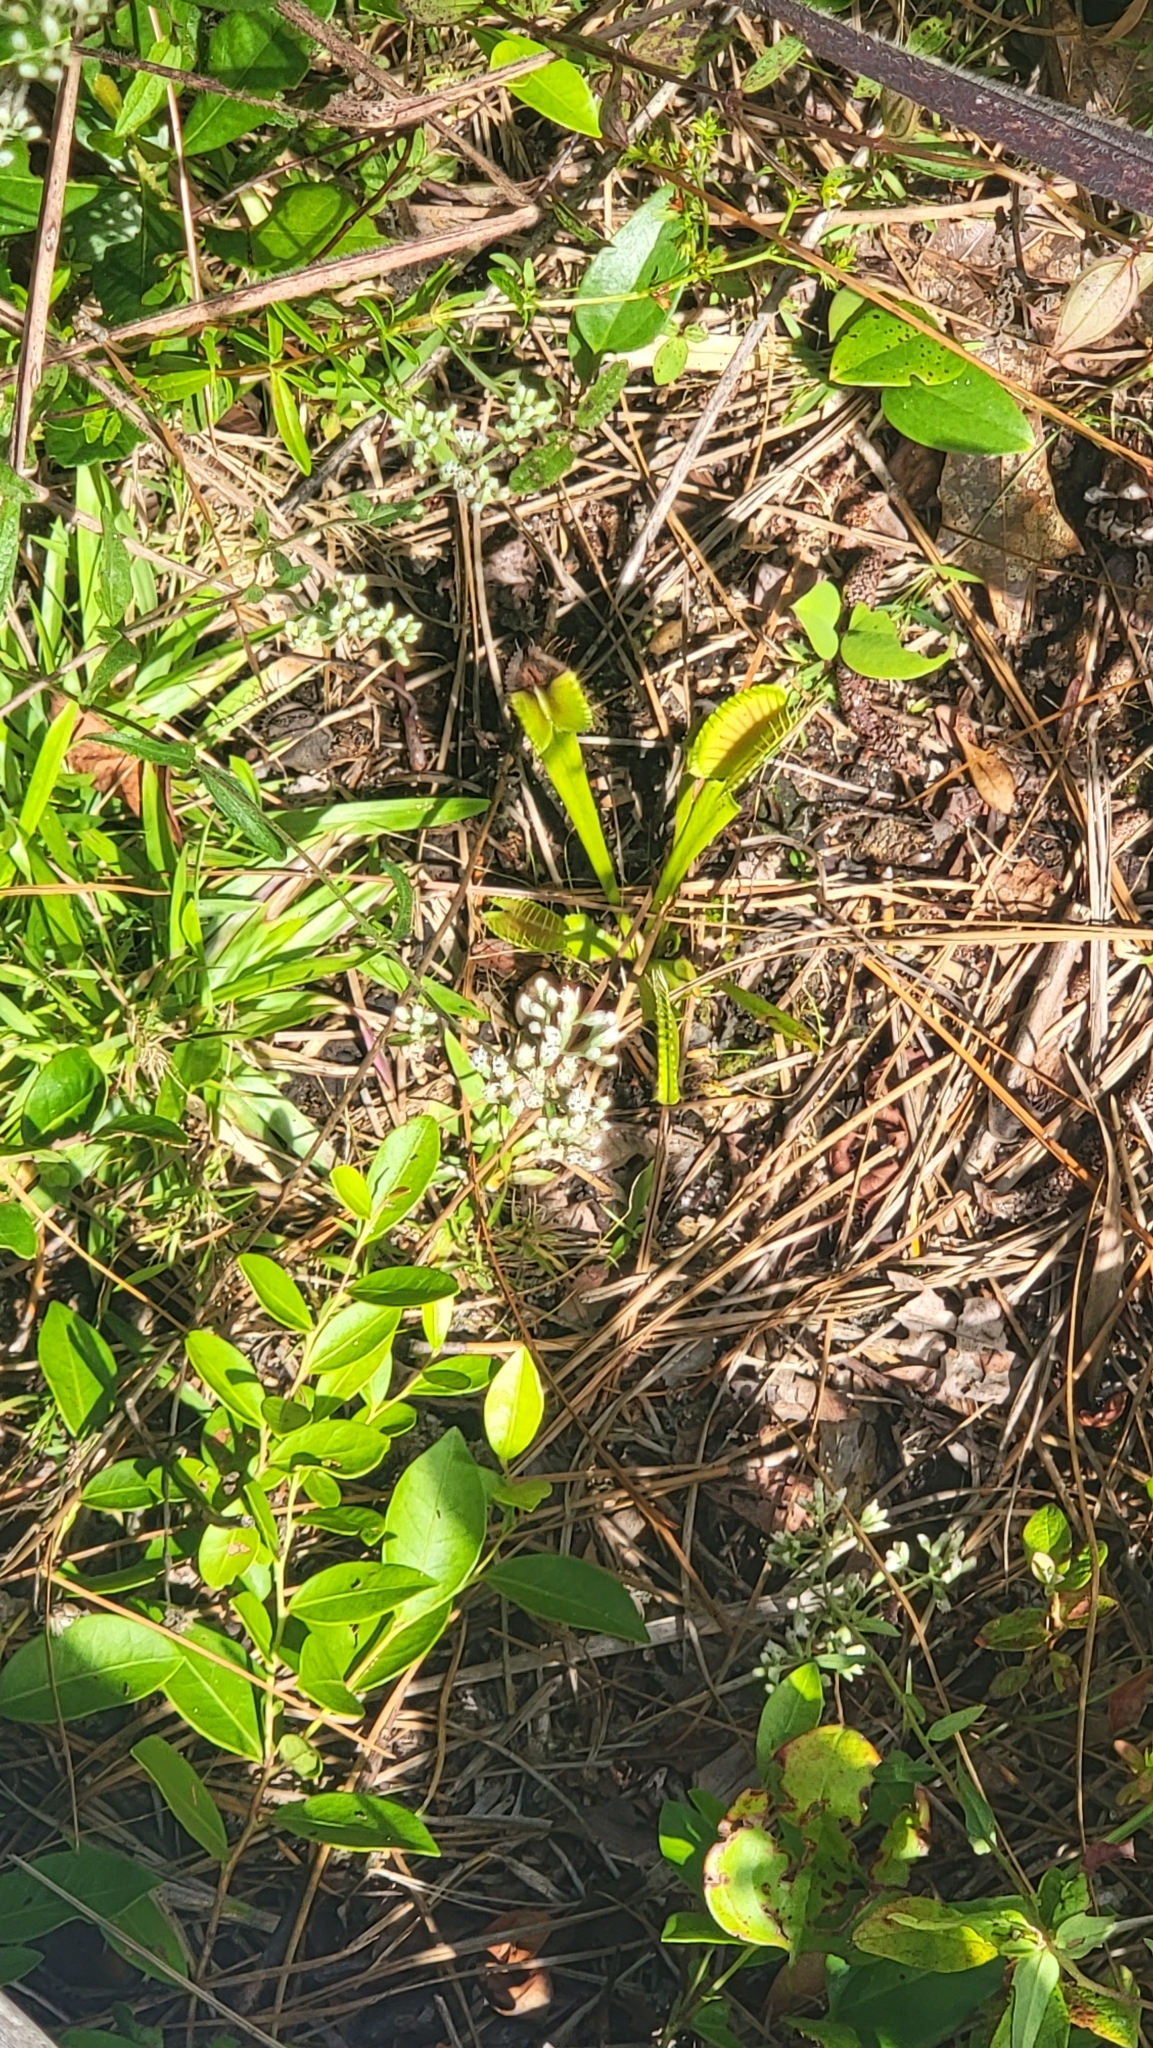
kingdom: Plantae
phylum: Tracheophyta
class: Magnoliopsida
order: Caryophyllales
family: Droseraceae
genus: Dionaea
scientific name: Dionaea muscipula
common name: Venus flytrap
